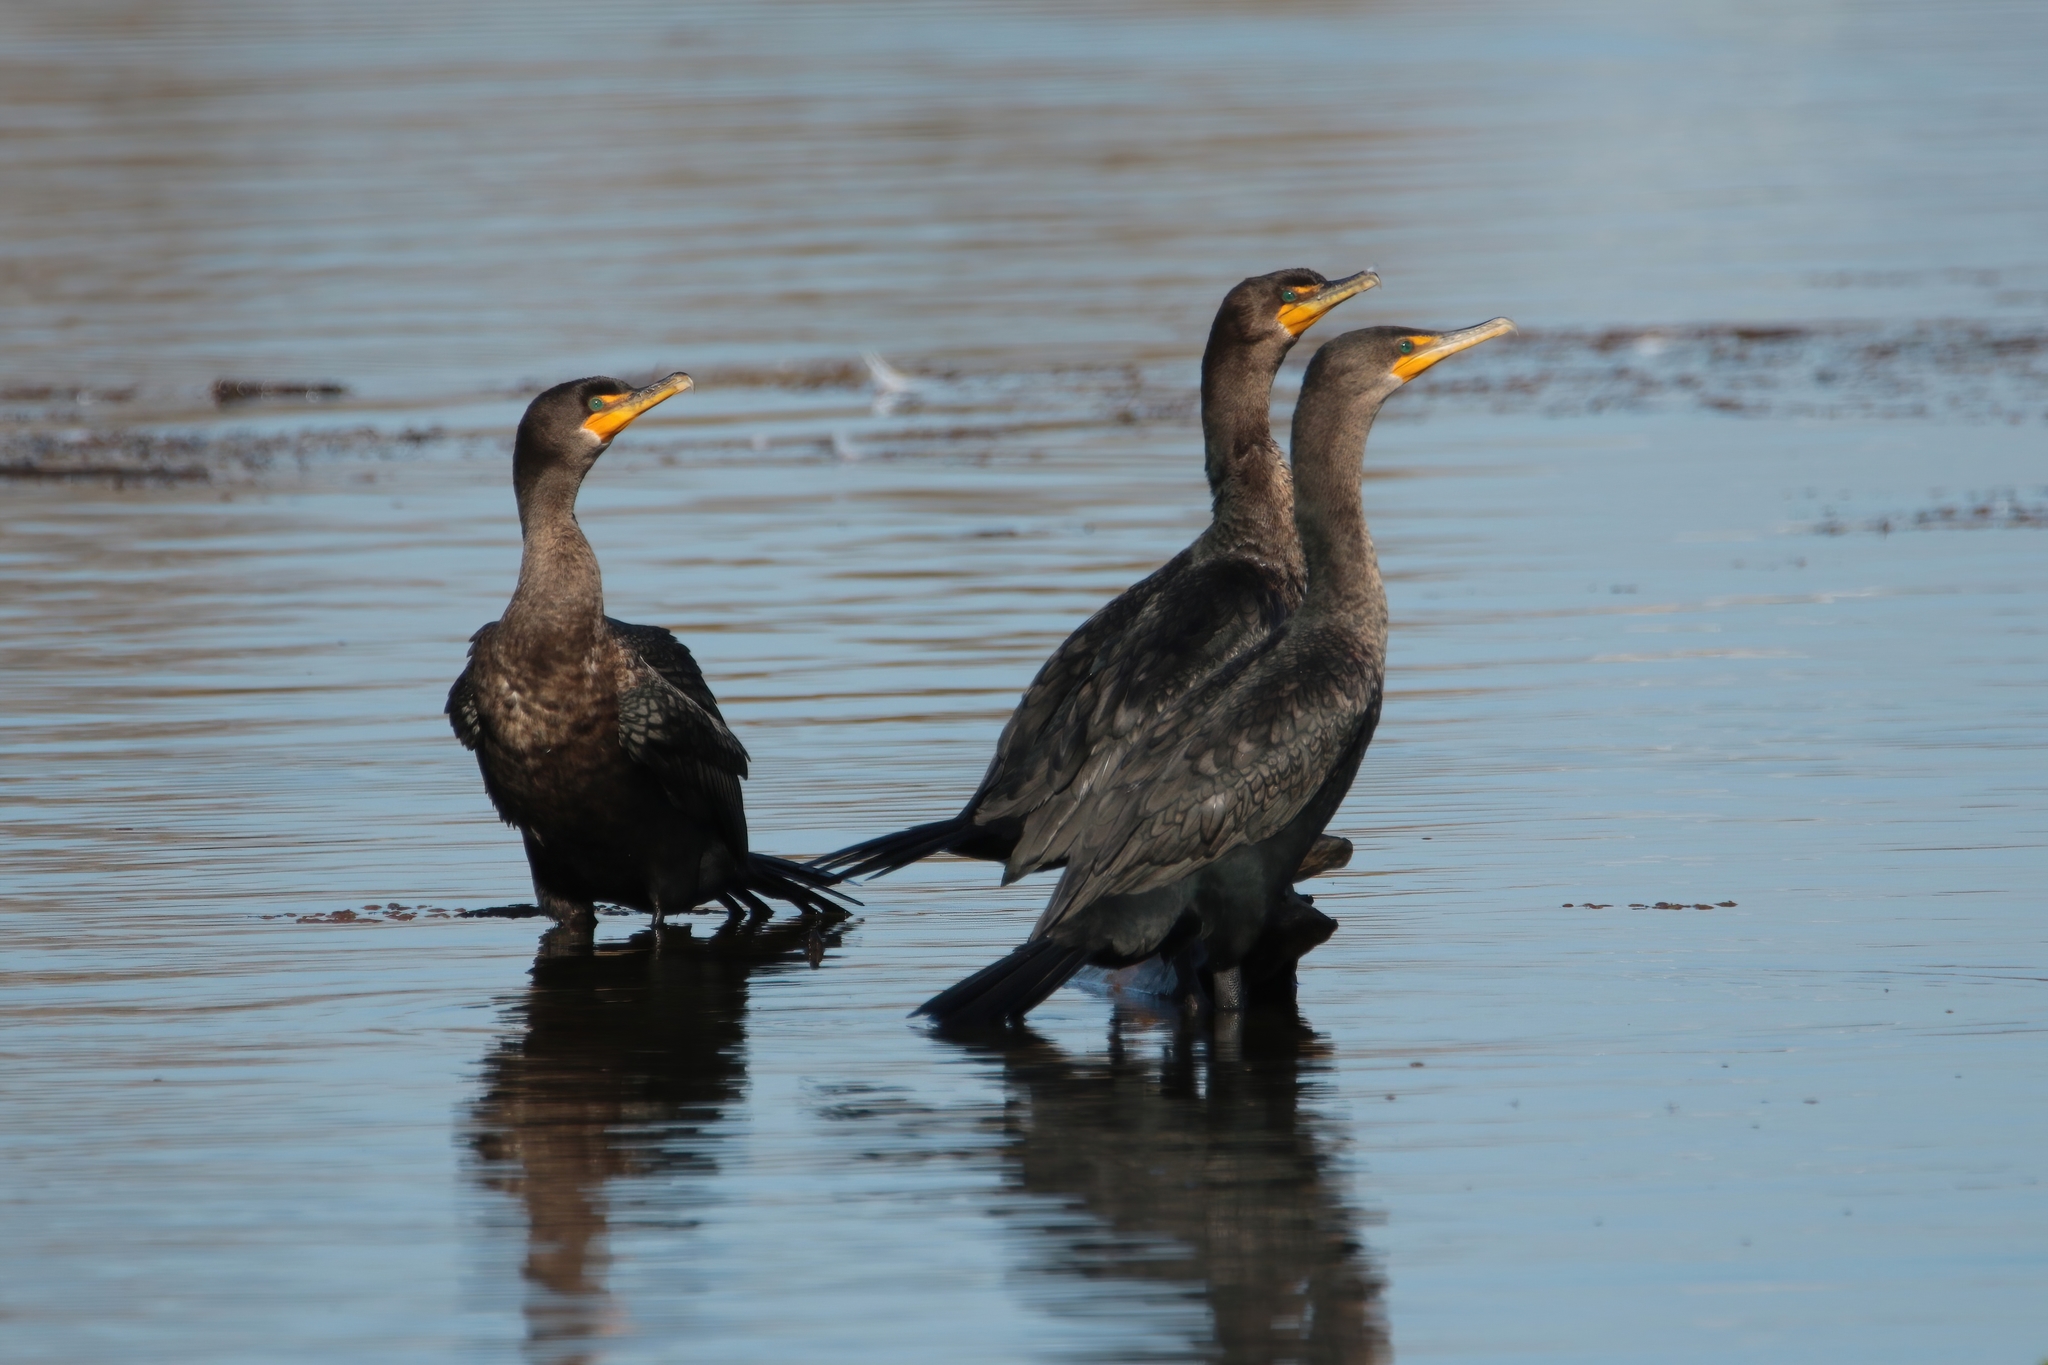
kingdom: Animalia
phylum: Chordata
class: Aves
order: Suliformes
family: Phalacrocoracidae
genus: Phalacrocorax
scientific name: Phalacrocorax auritus
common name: Double-crested cormorant
